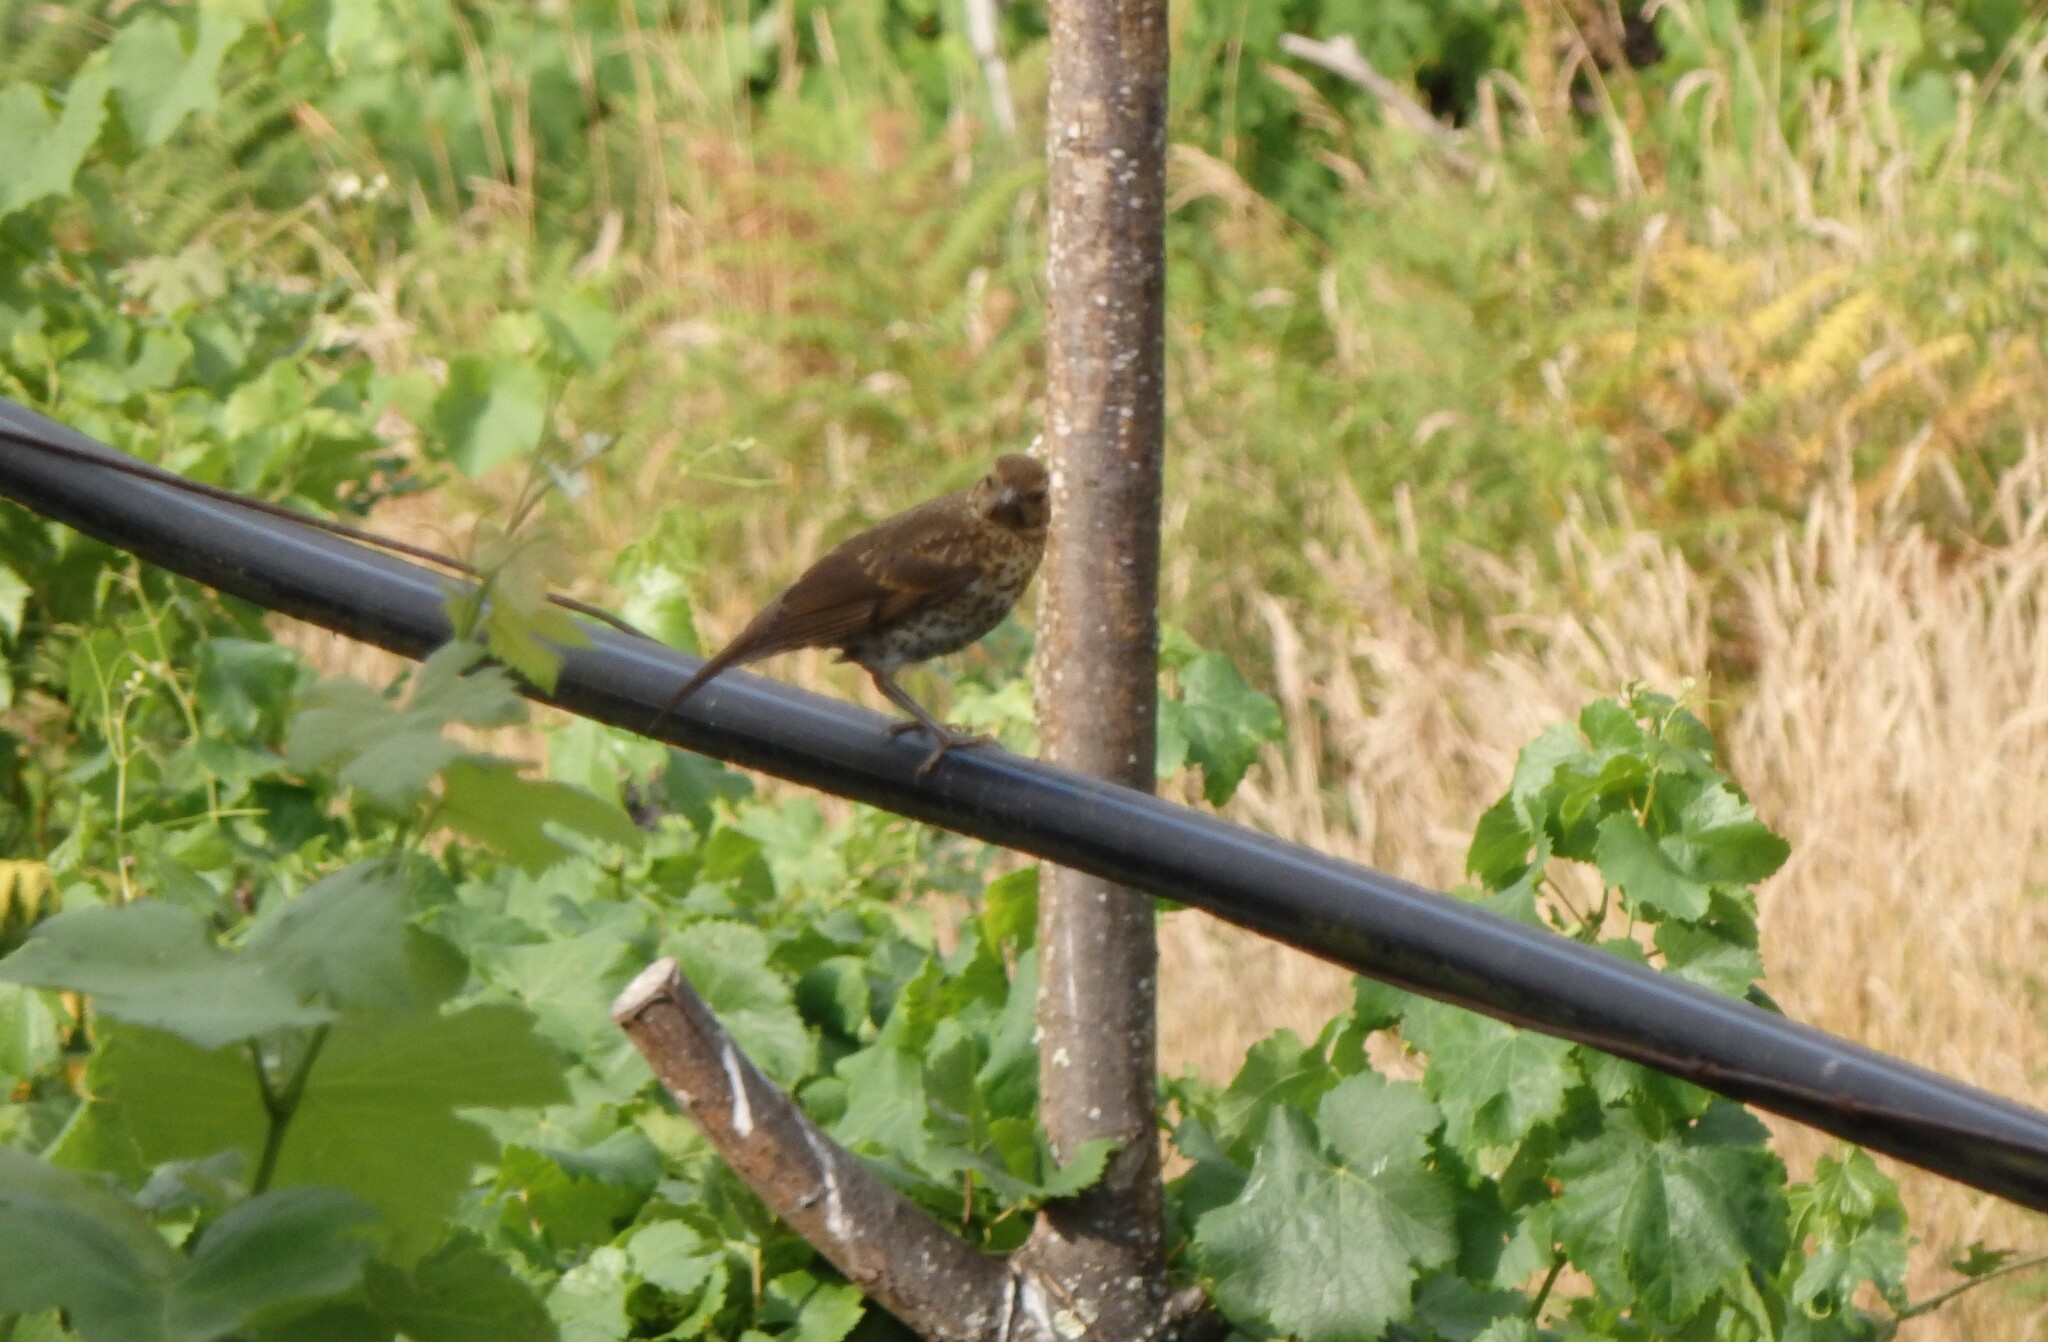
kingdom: Animalia
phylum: Chordata
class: Aves
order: Passeriformes
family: Turdidae
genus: Turdus
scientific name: Turdus philomelos
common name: Song thrush
